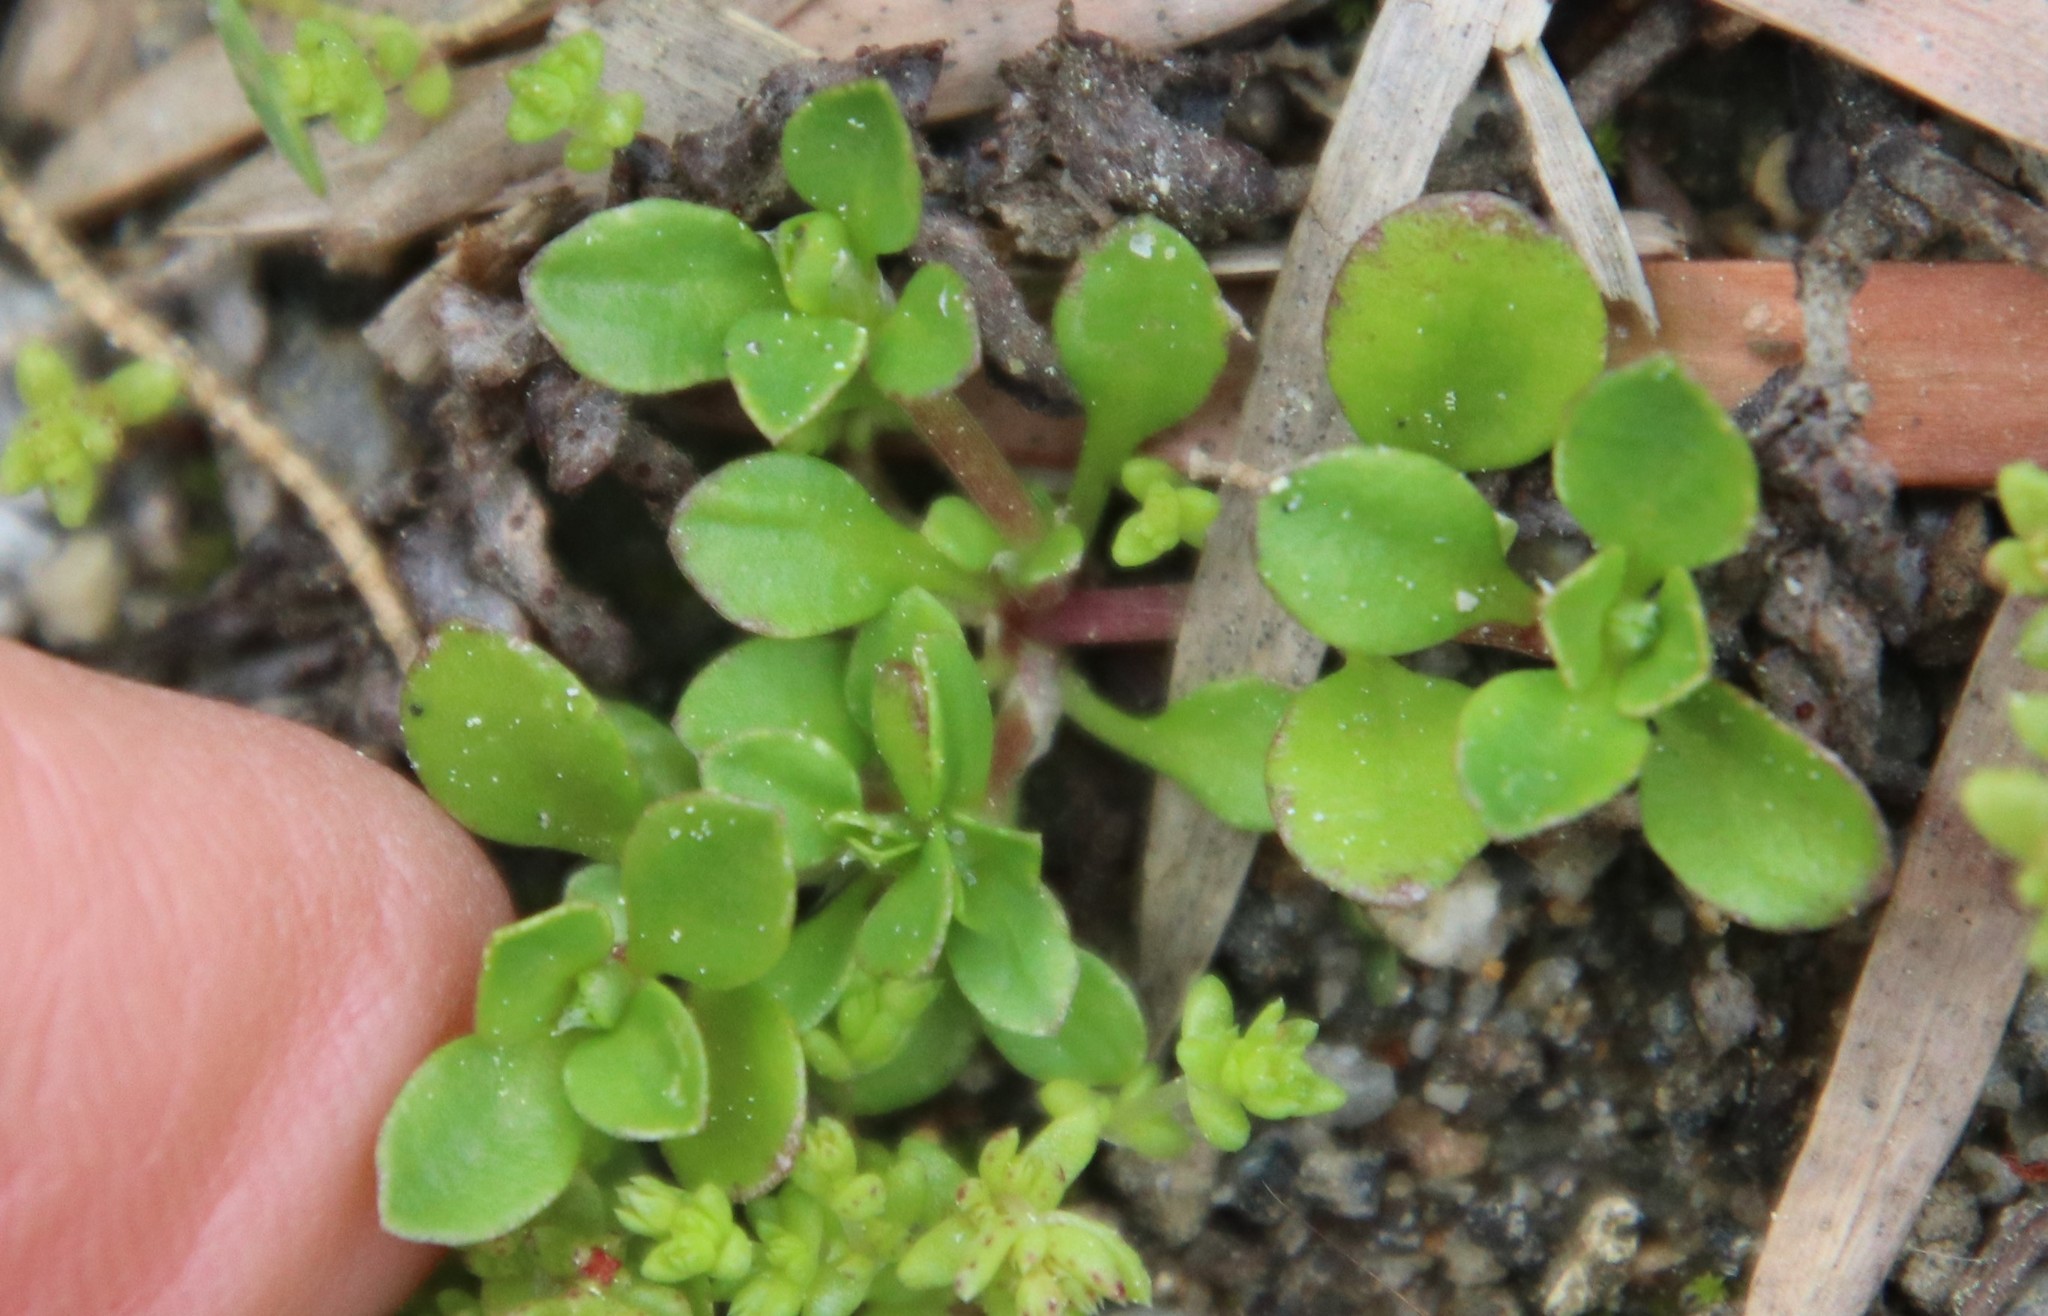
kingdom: Plantae
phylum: Tracheophyta
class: Magnoliopsida
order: Caryophyllales
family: Caryophyllaceae
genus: Polycarpon
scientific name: Polycarpon tetraphyllum
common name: Four-leaved all-seed
